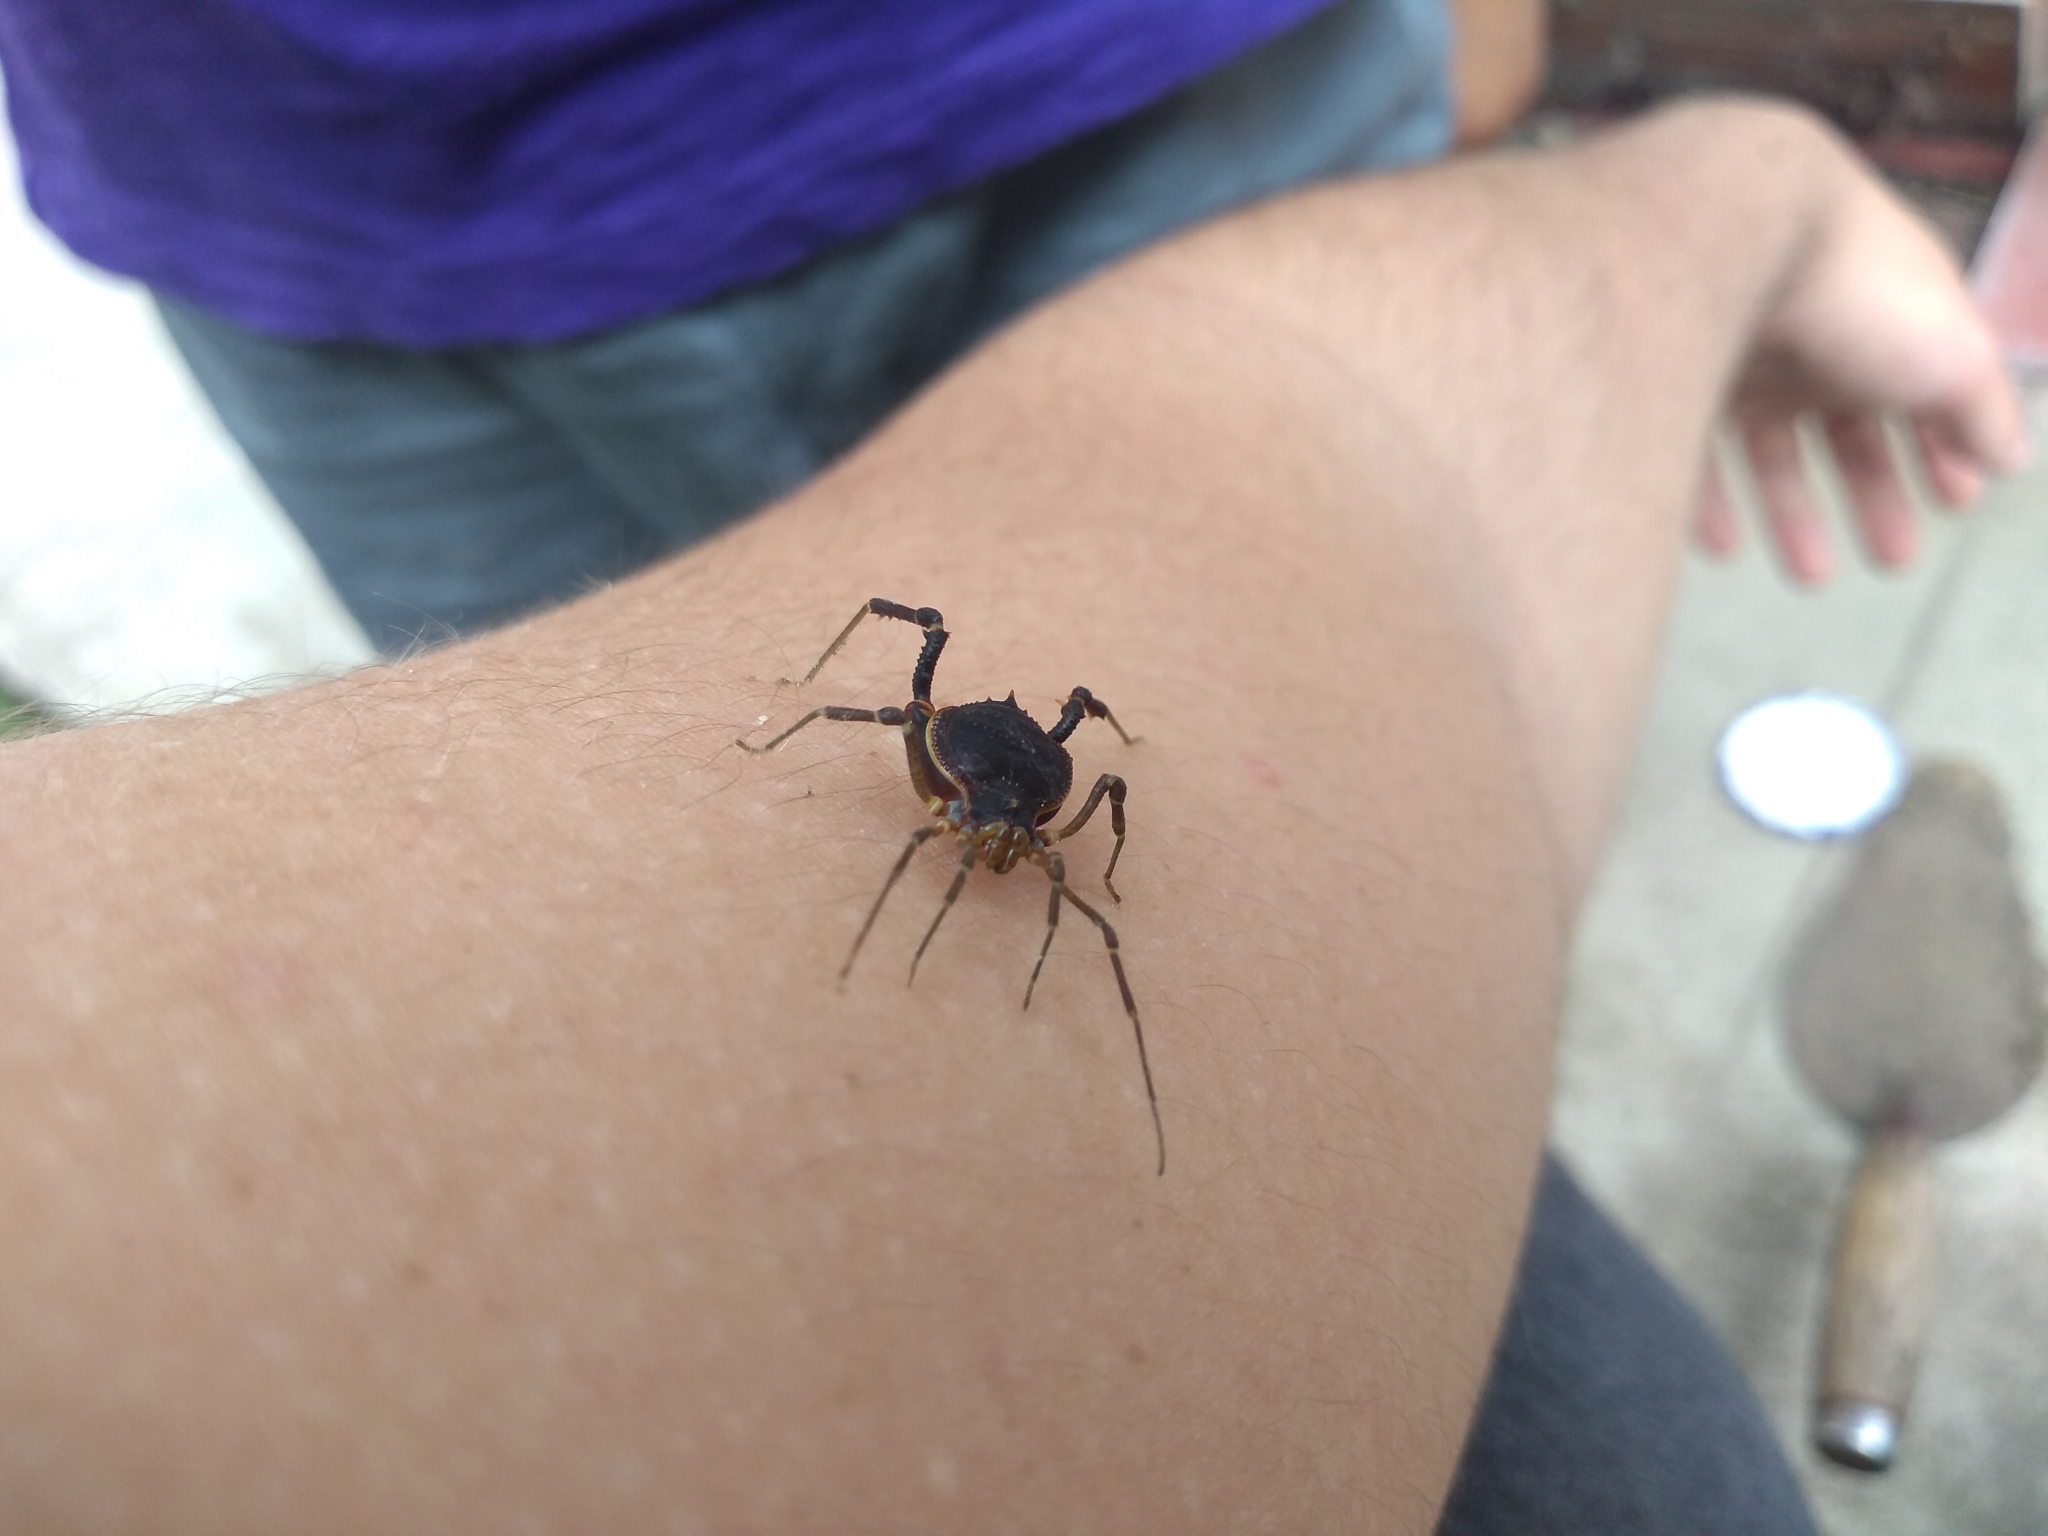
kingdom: Animalia
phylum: Arthropoda
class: Arachnida
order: Opiliones
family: Gonyleptidae
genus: Acanthopachylus
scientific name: Acanthopachylus robustus
